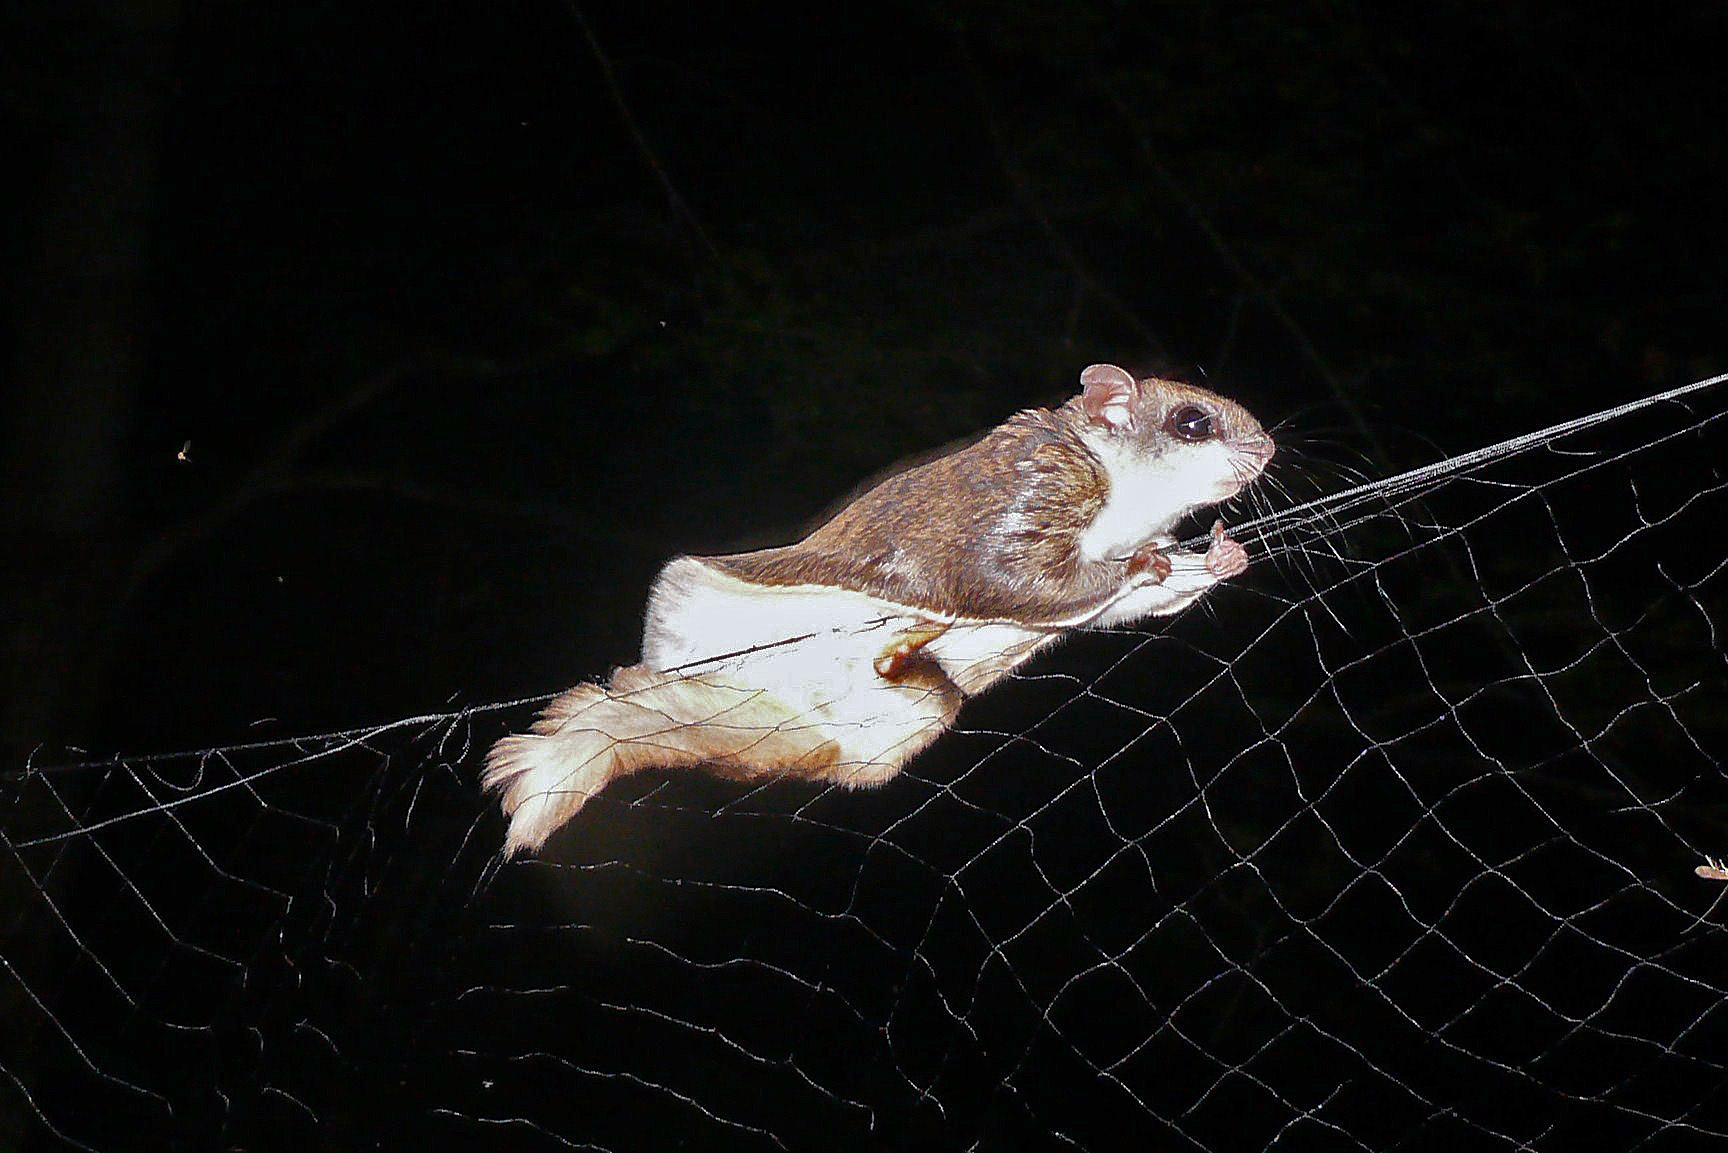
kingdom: Animalia
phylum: Chordata
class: Mammalia
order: Rodentia
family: Sciuridae
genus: Glaucomys
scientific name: Glaucomys volans
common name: Southern flying squirrel
